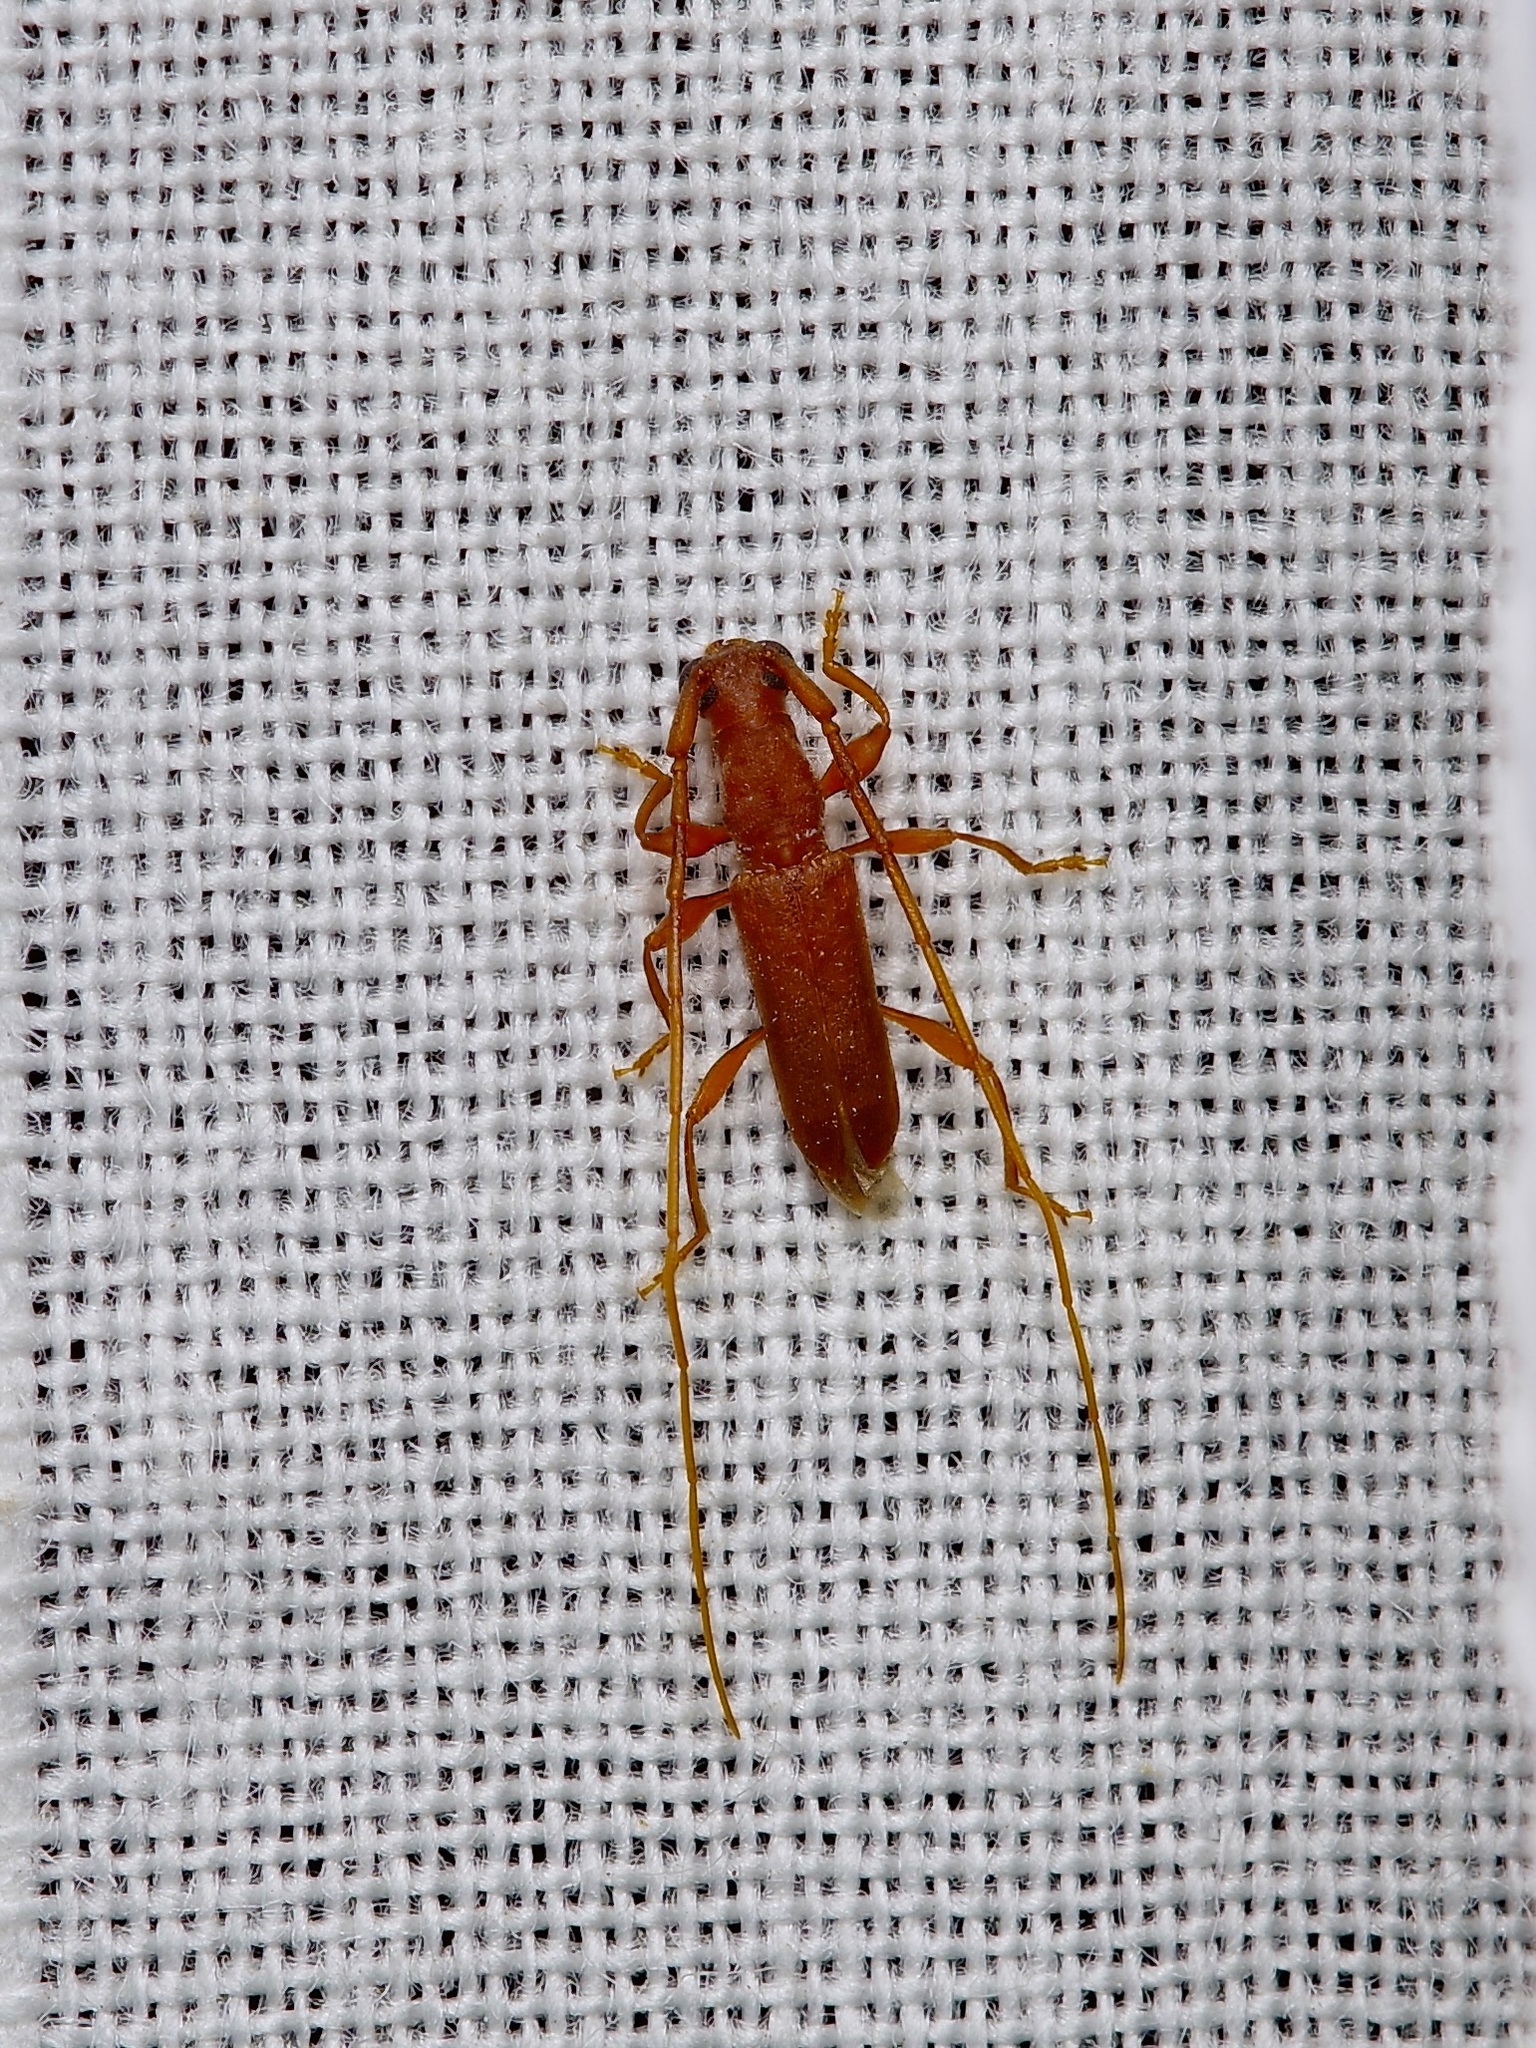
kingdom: Animalia
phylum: Arthropoda
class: Insecta
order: Coleoptera
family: Cerambycidae
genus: Hypexilis
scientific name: Hypexilis pallida
